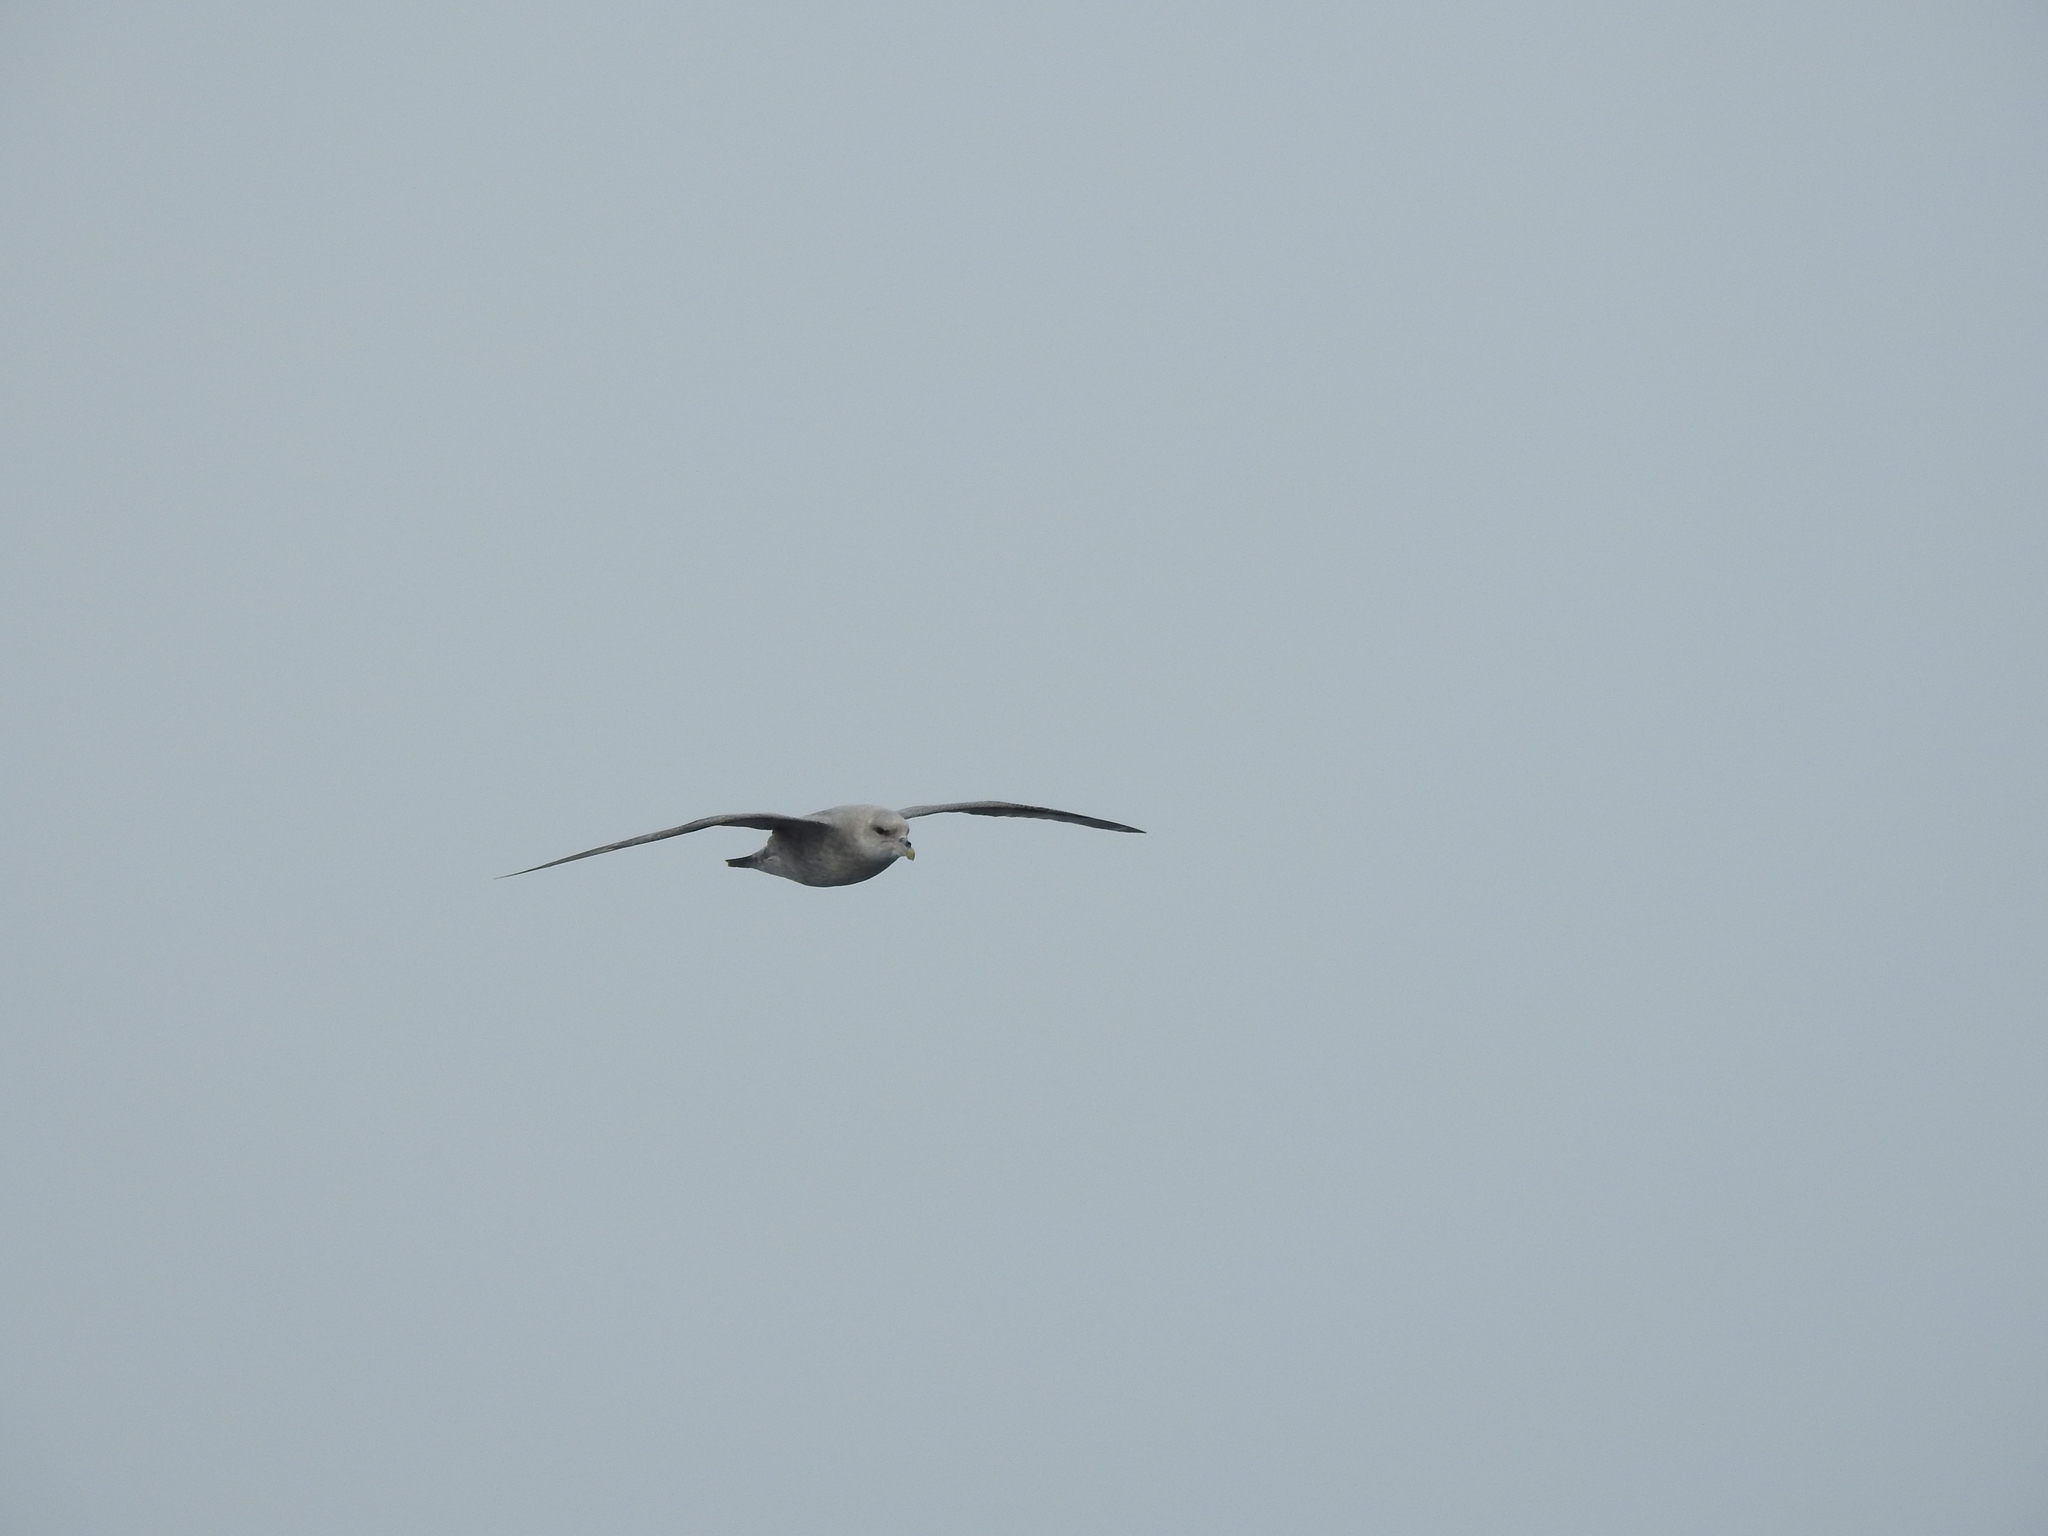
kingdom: Animalia
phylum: Chordata
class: Aves
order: Procellariiformes
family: Procellariidae
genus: Fulmarus
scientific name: Fulmarus glacialis
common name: Northern fulmar
